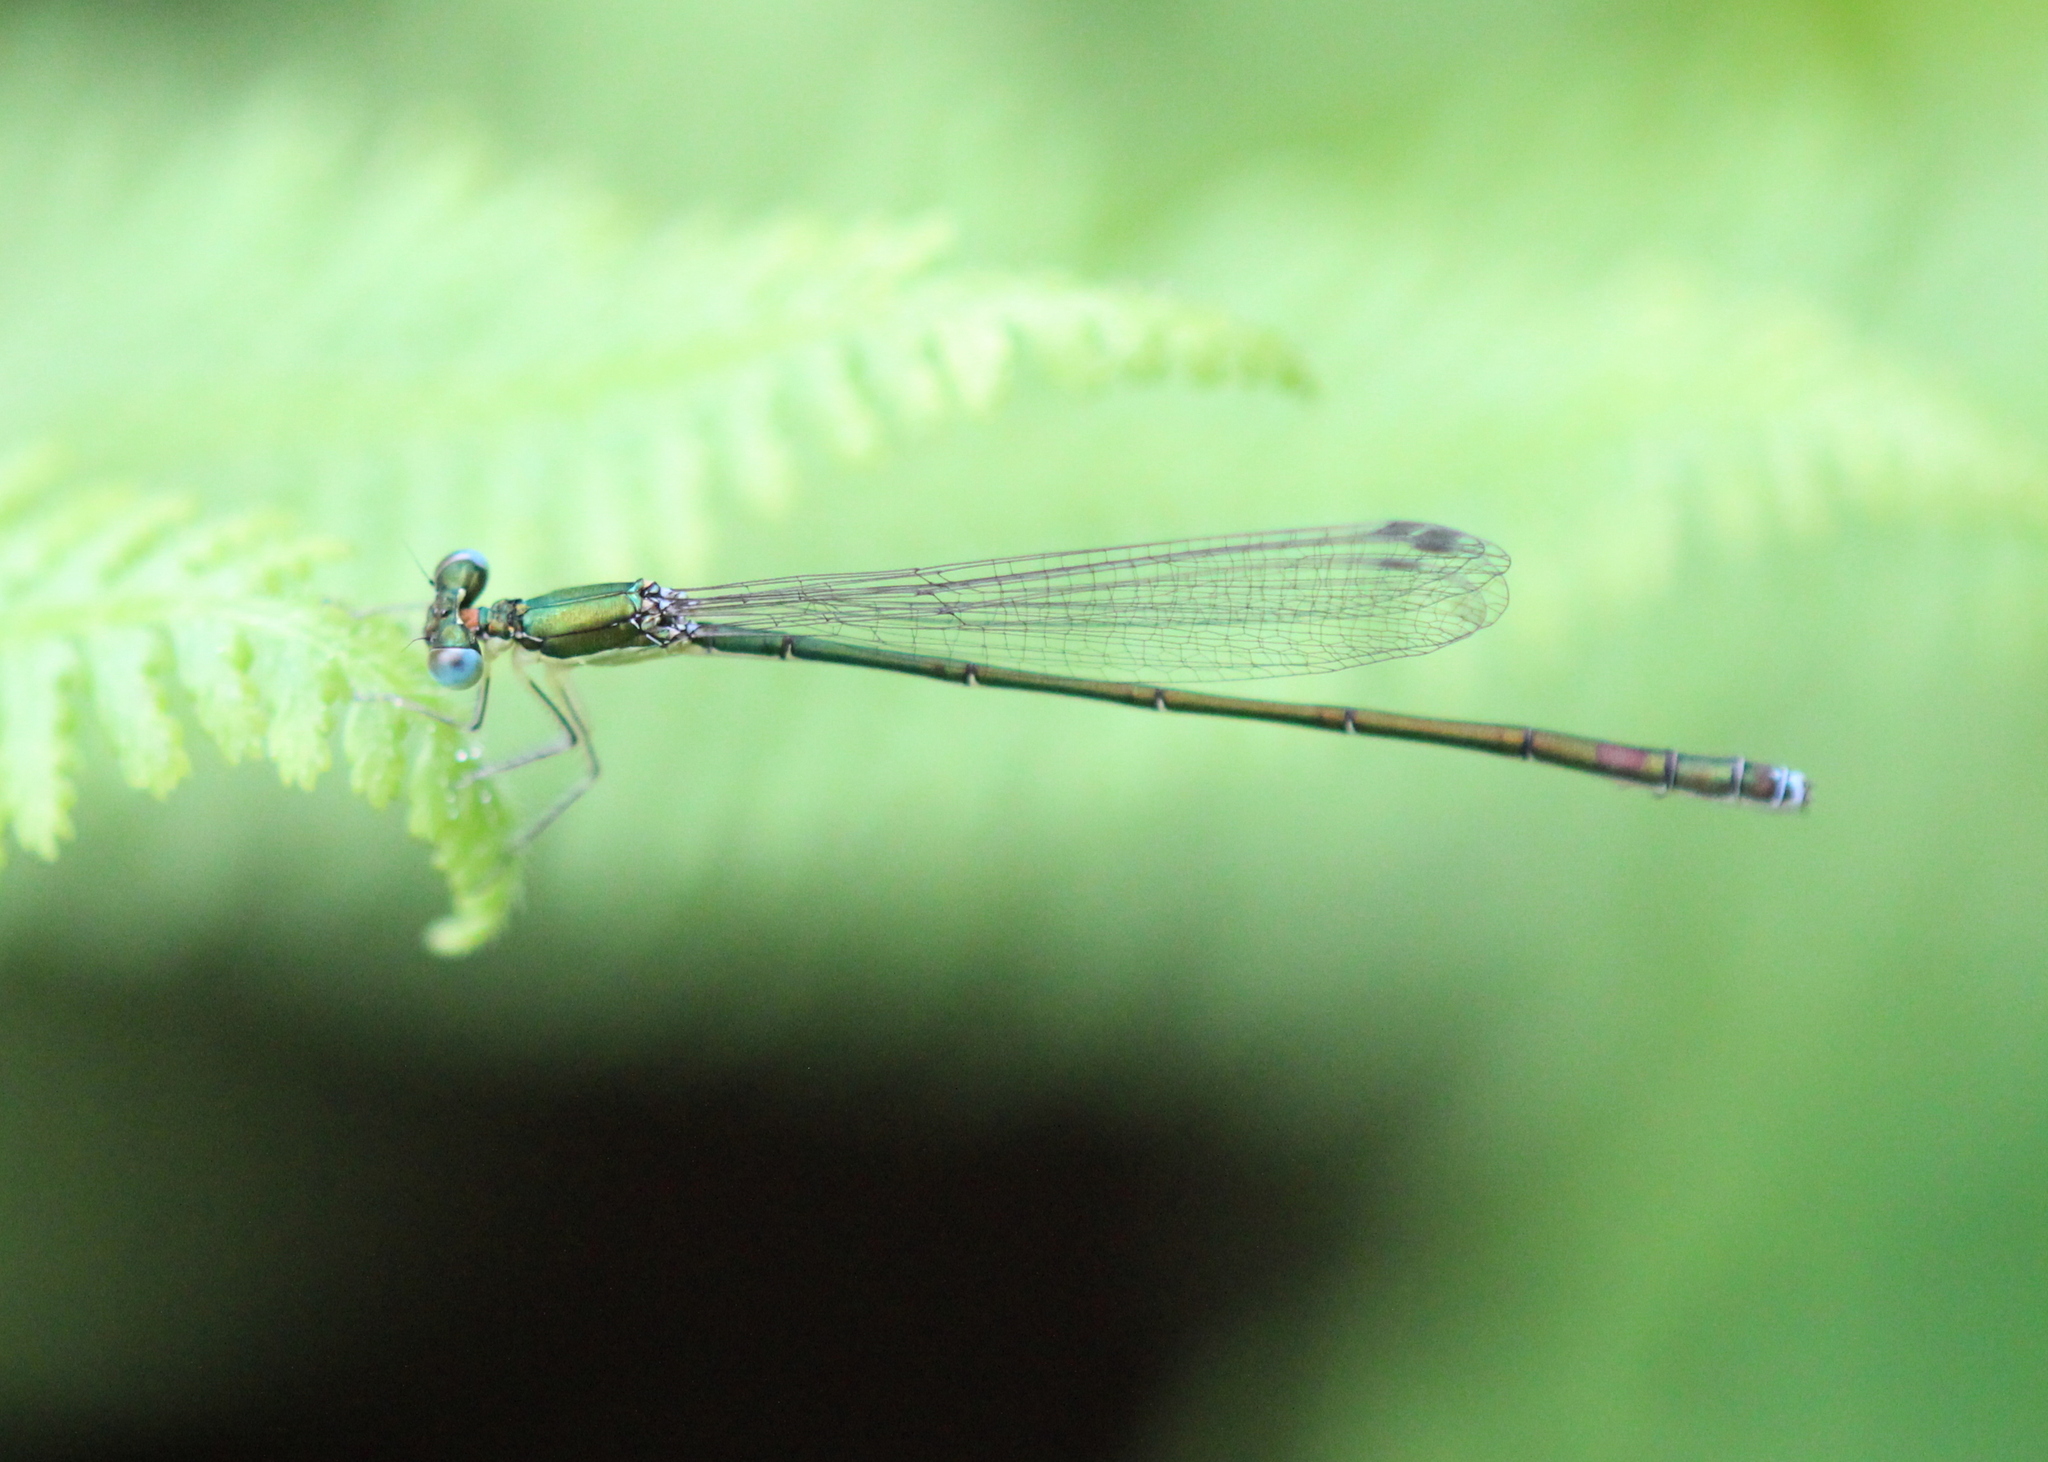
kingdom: Animalia
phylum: Arthropoda
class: Insecta
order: Odonata
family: Coenagrionidae
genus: Nehalennia
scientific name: Nehalennia irene
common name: Sedge sprite
